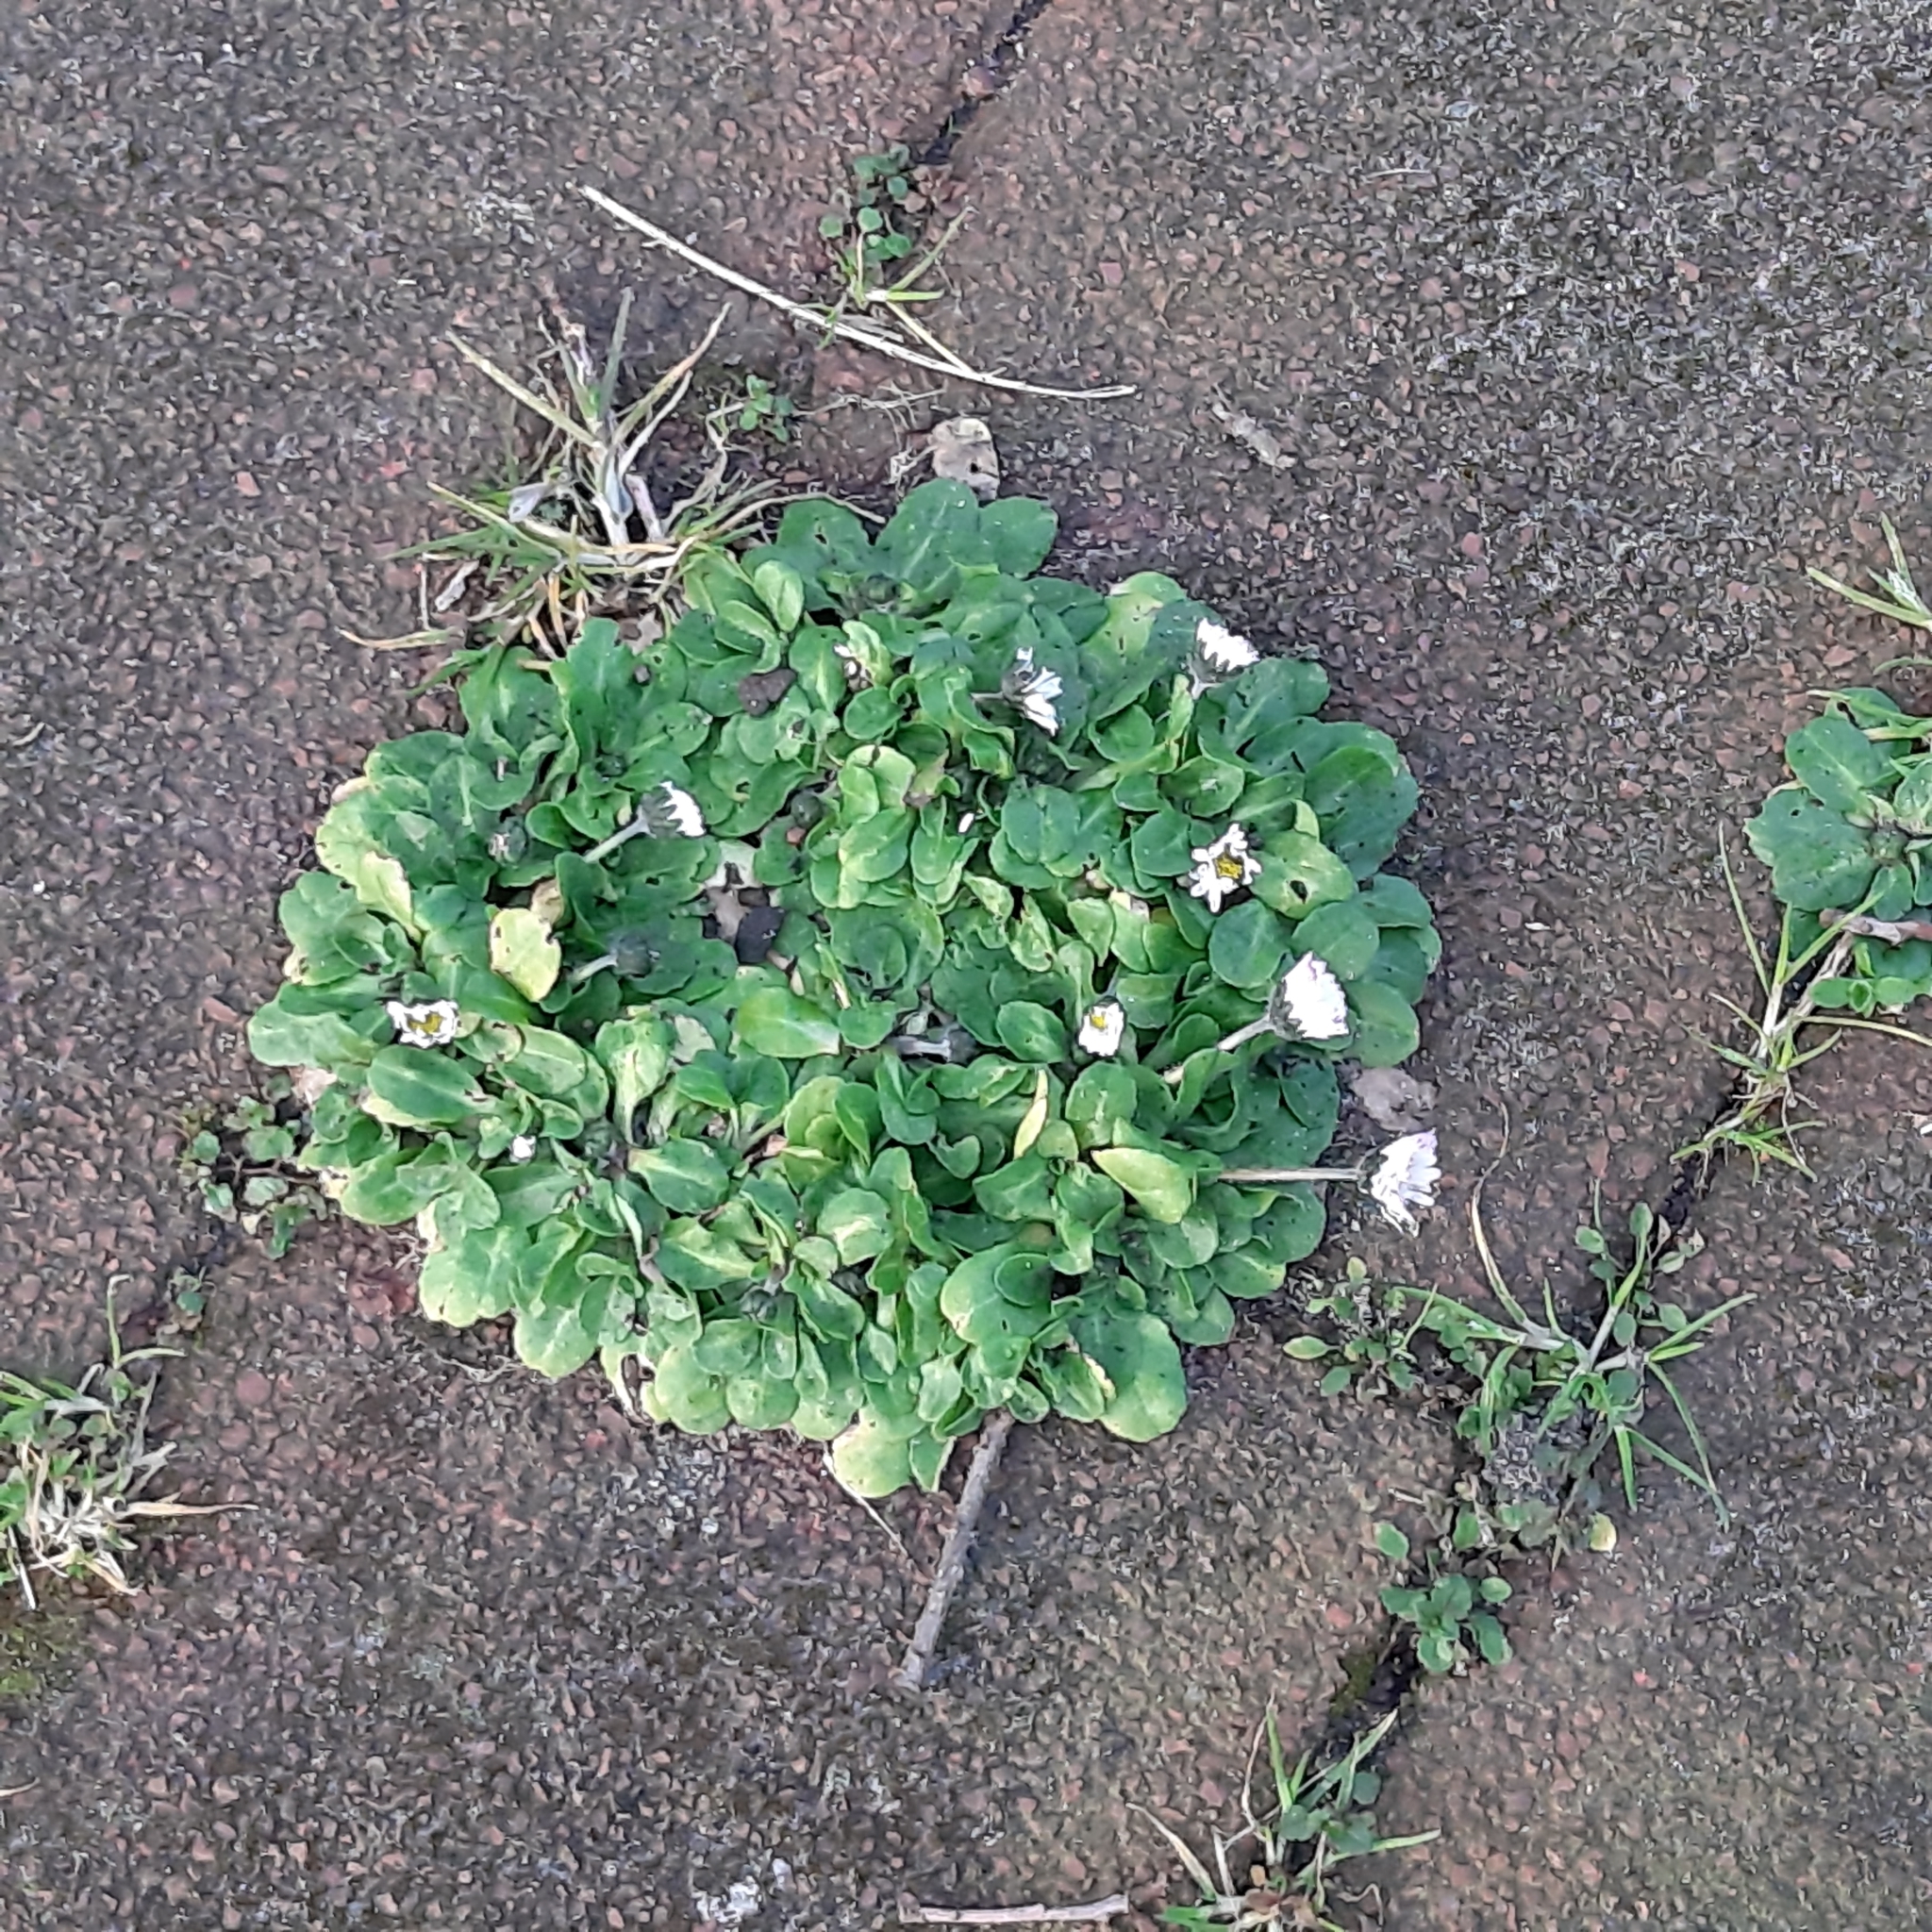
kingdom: Plantae
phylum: Tracheophyta
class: Magnoliopsida
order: Asterales
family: Asteraceae
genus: Bellis
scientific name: Bellis perennis
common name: Lawndaisy
